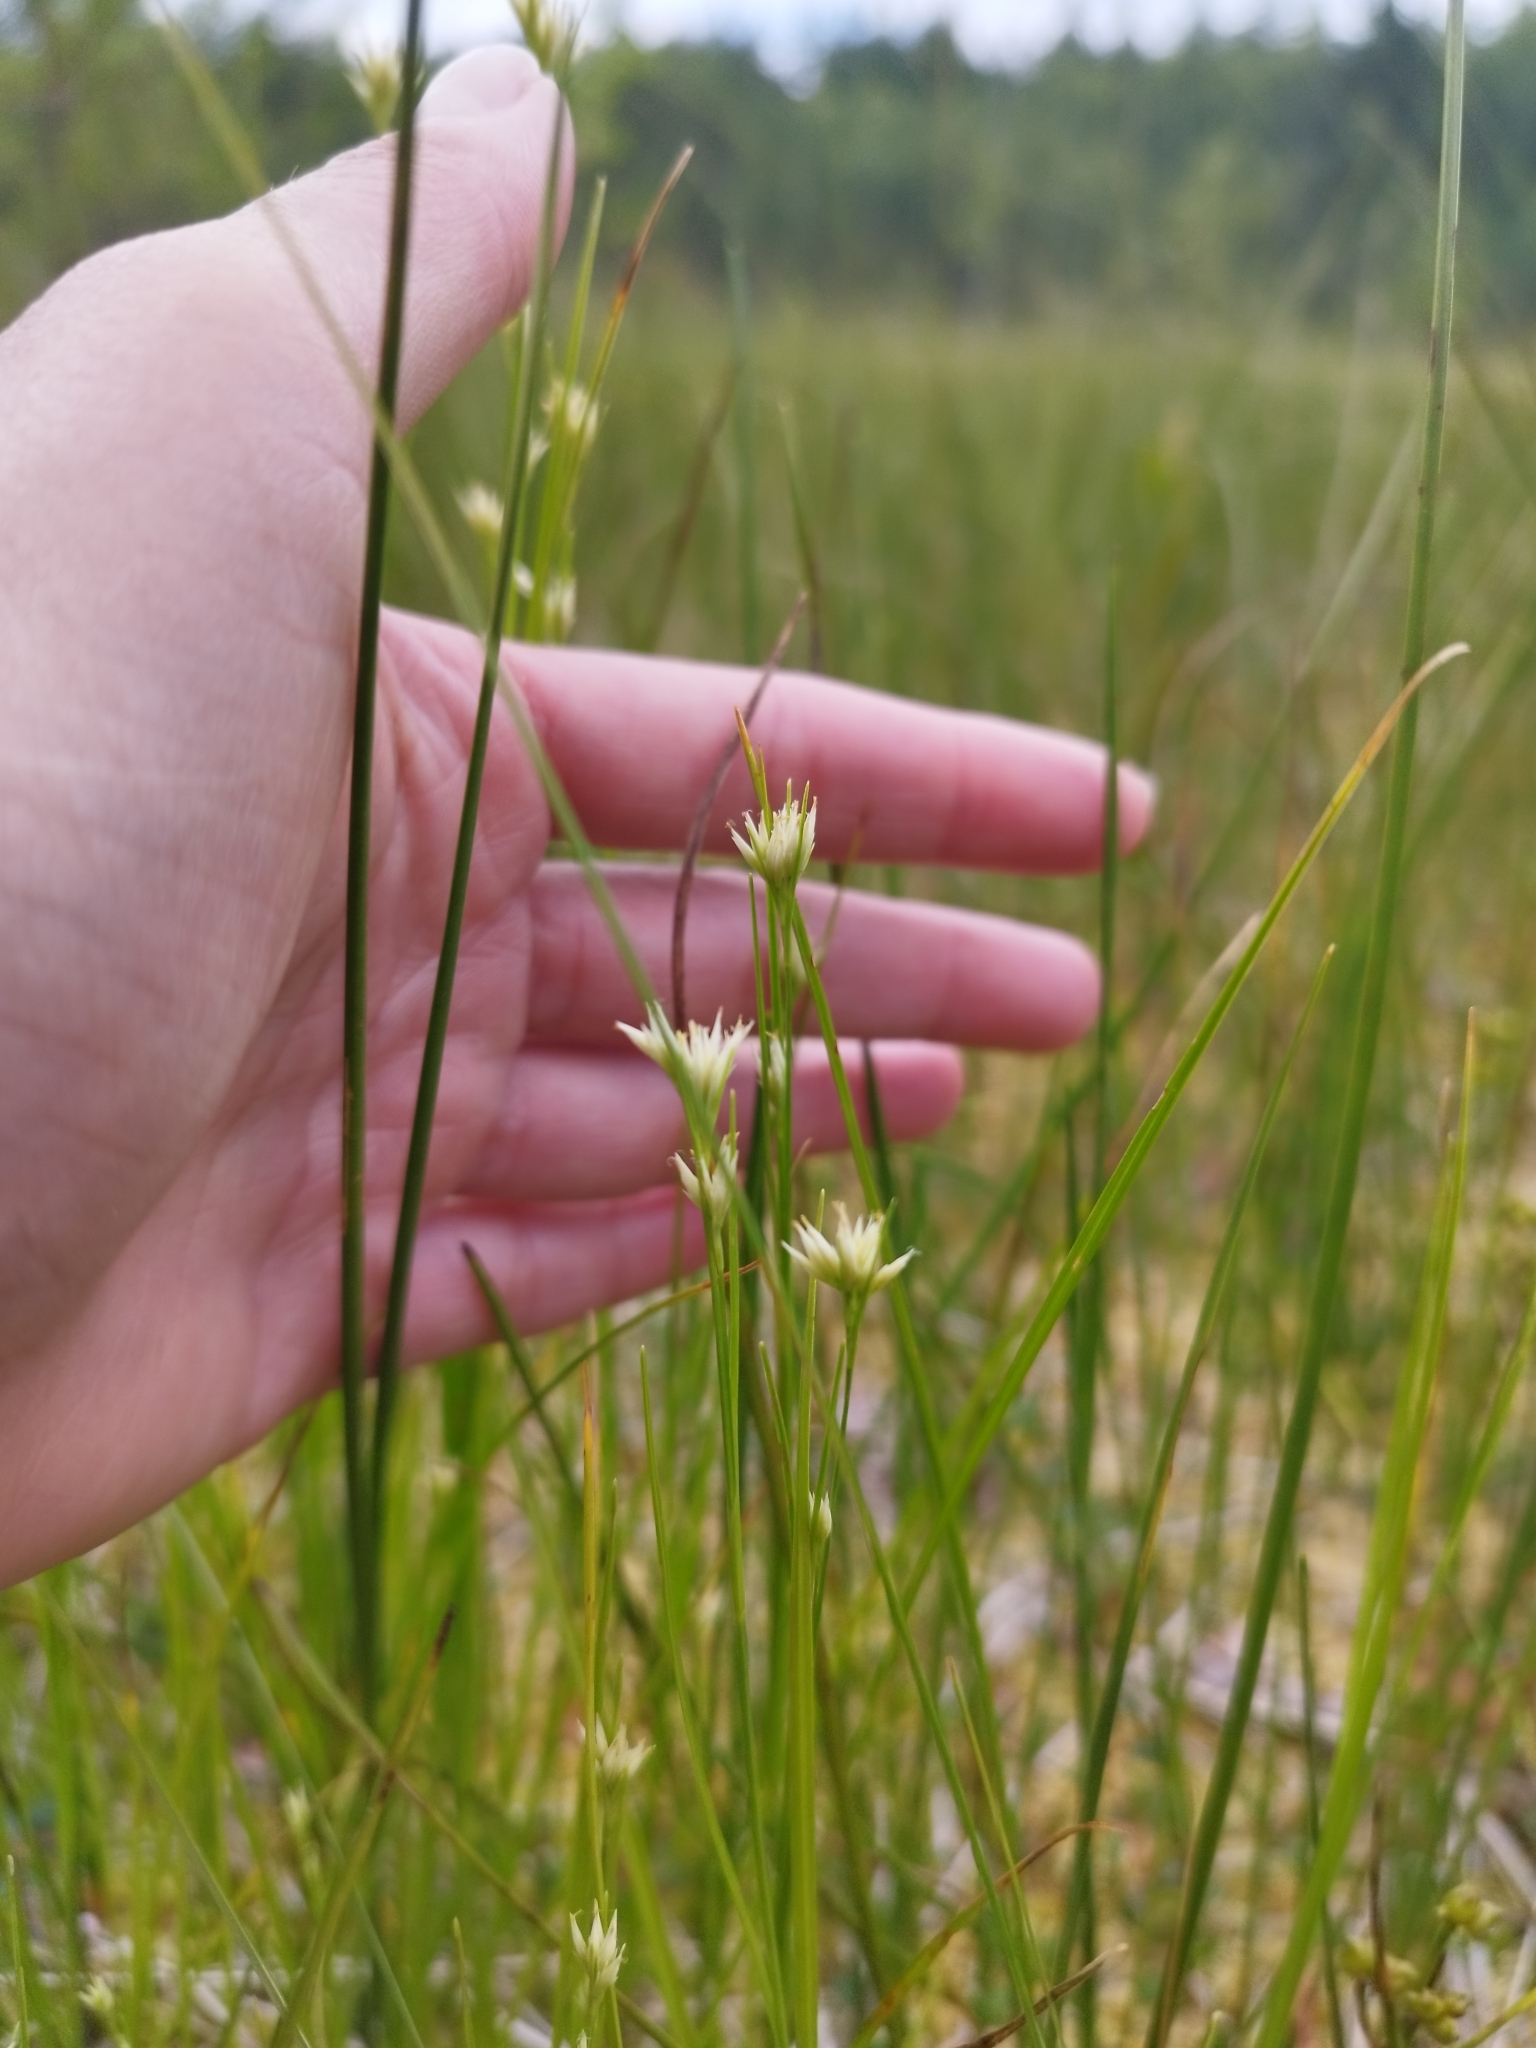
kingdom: Plantae
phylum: Tracheophyta
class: Liliopsida
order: Poales
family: Cyperaceae
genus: Rhynchospora
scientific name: Rhynchospora alba
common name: White beak-sedge
